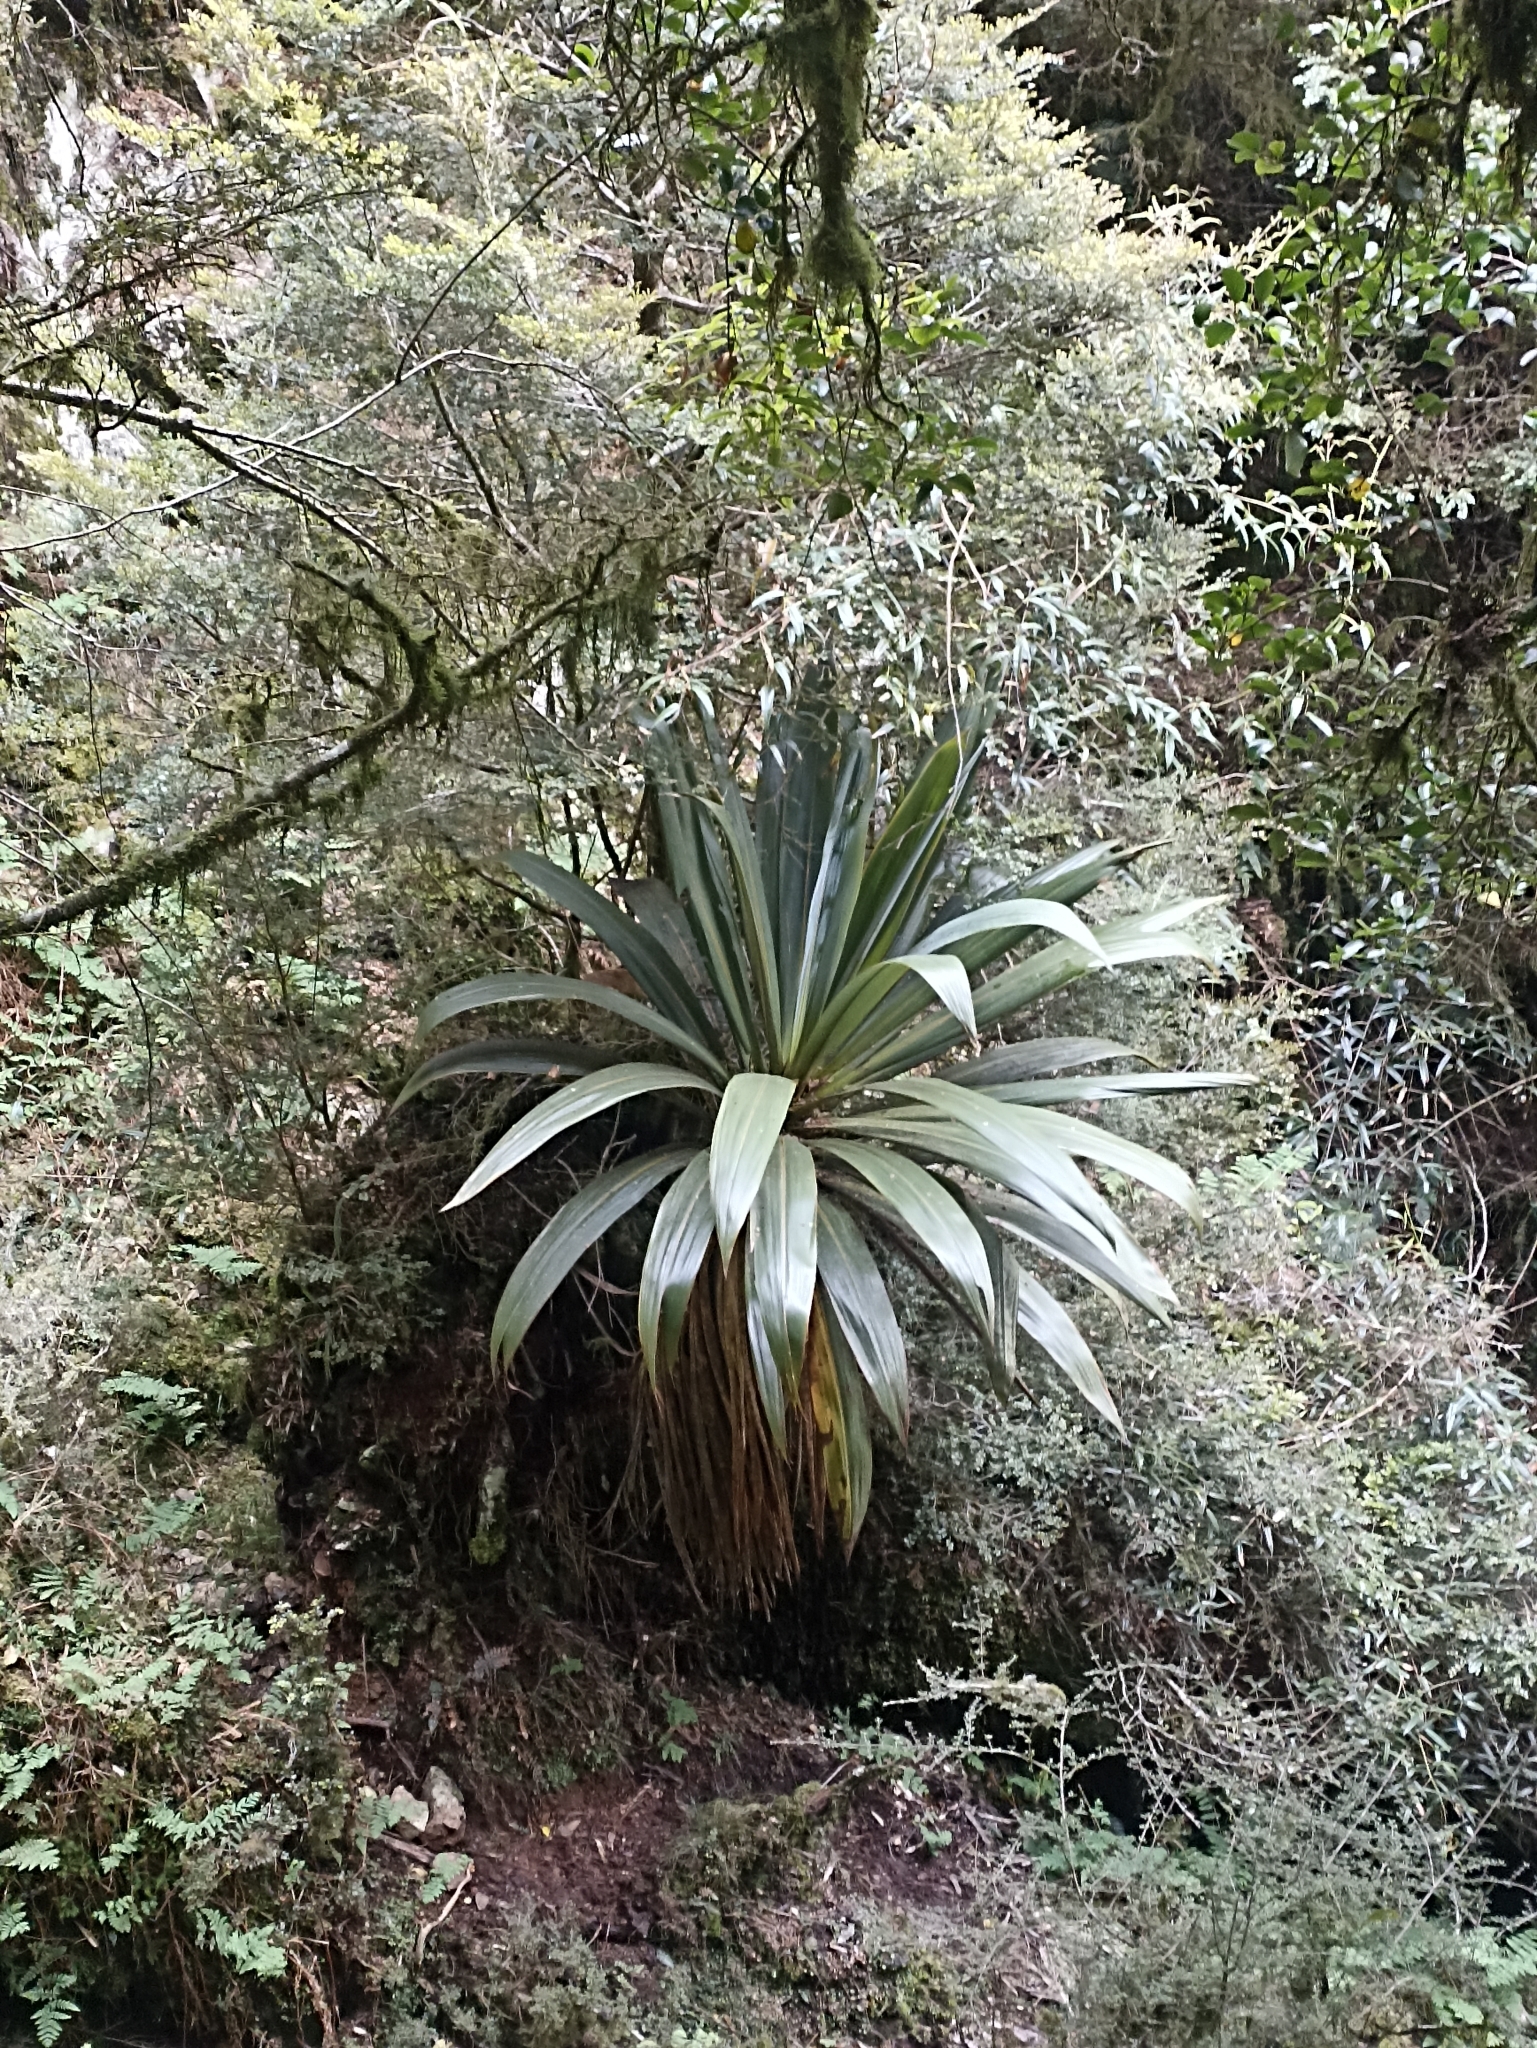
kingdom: Plantae
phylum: Tracheophyta
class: Liliopsida
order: Asparagales
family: Asparagaceae
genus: Cordyline
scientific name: Cordyline indivisa
